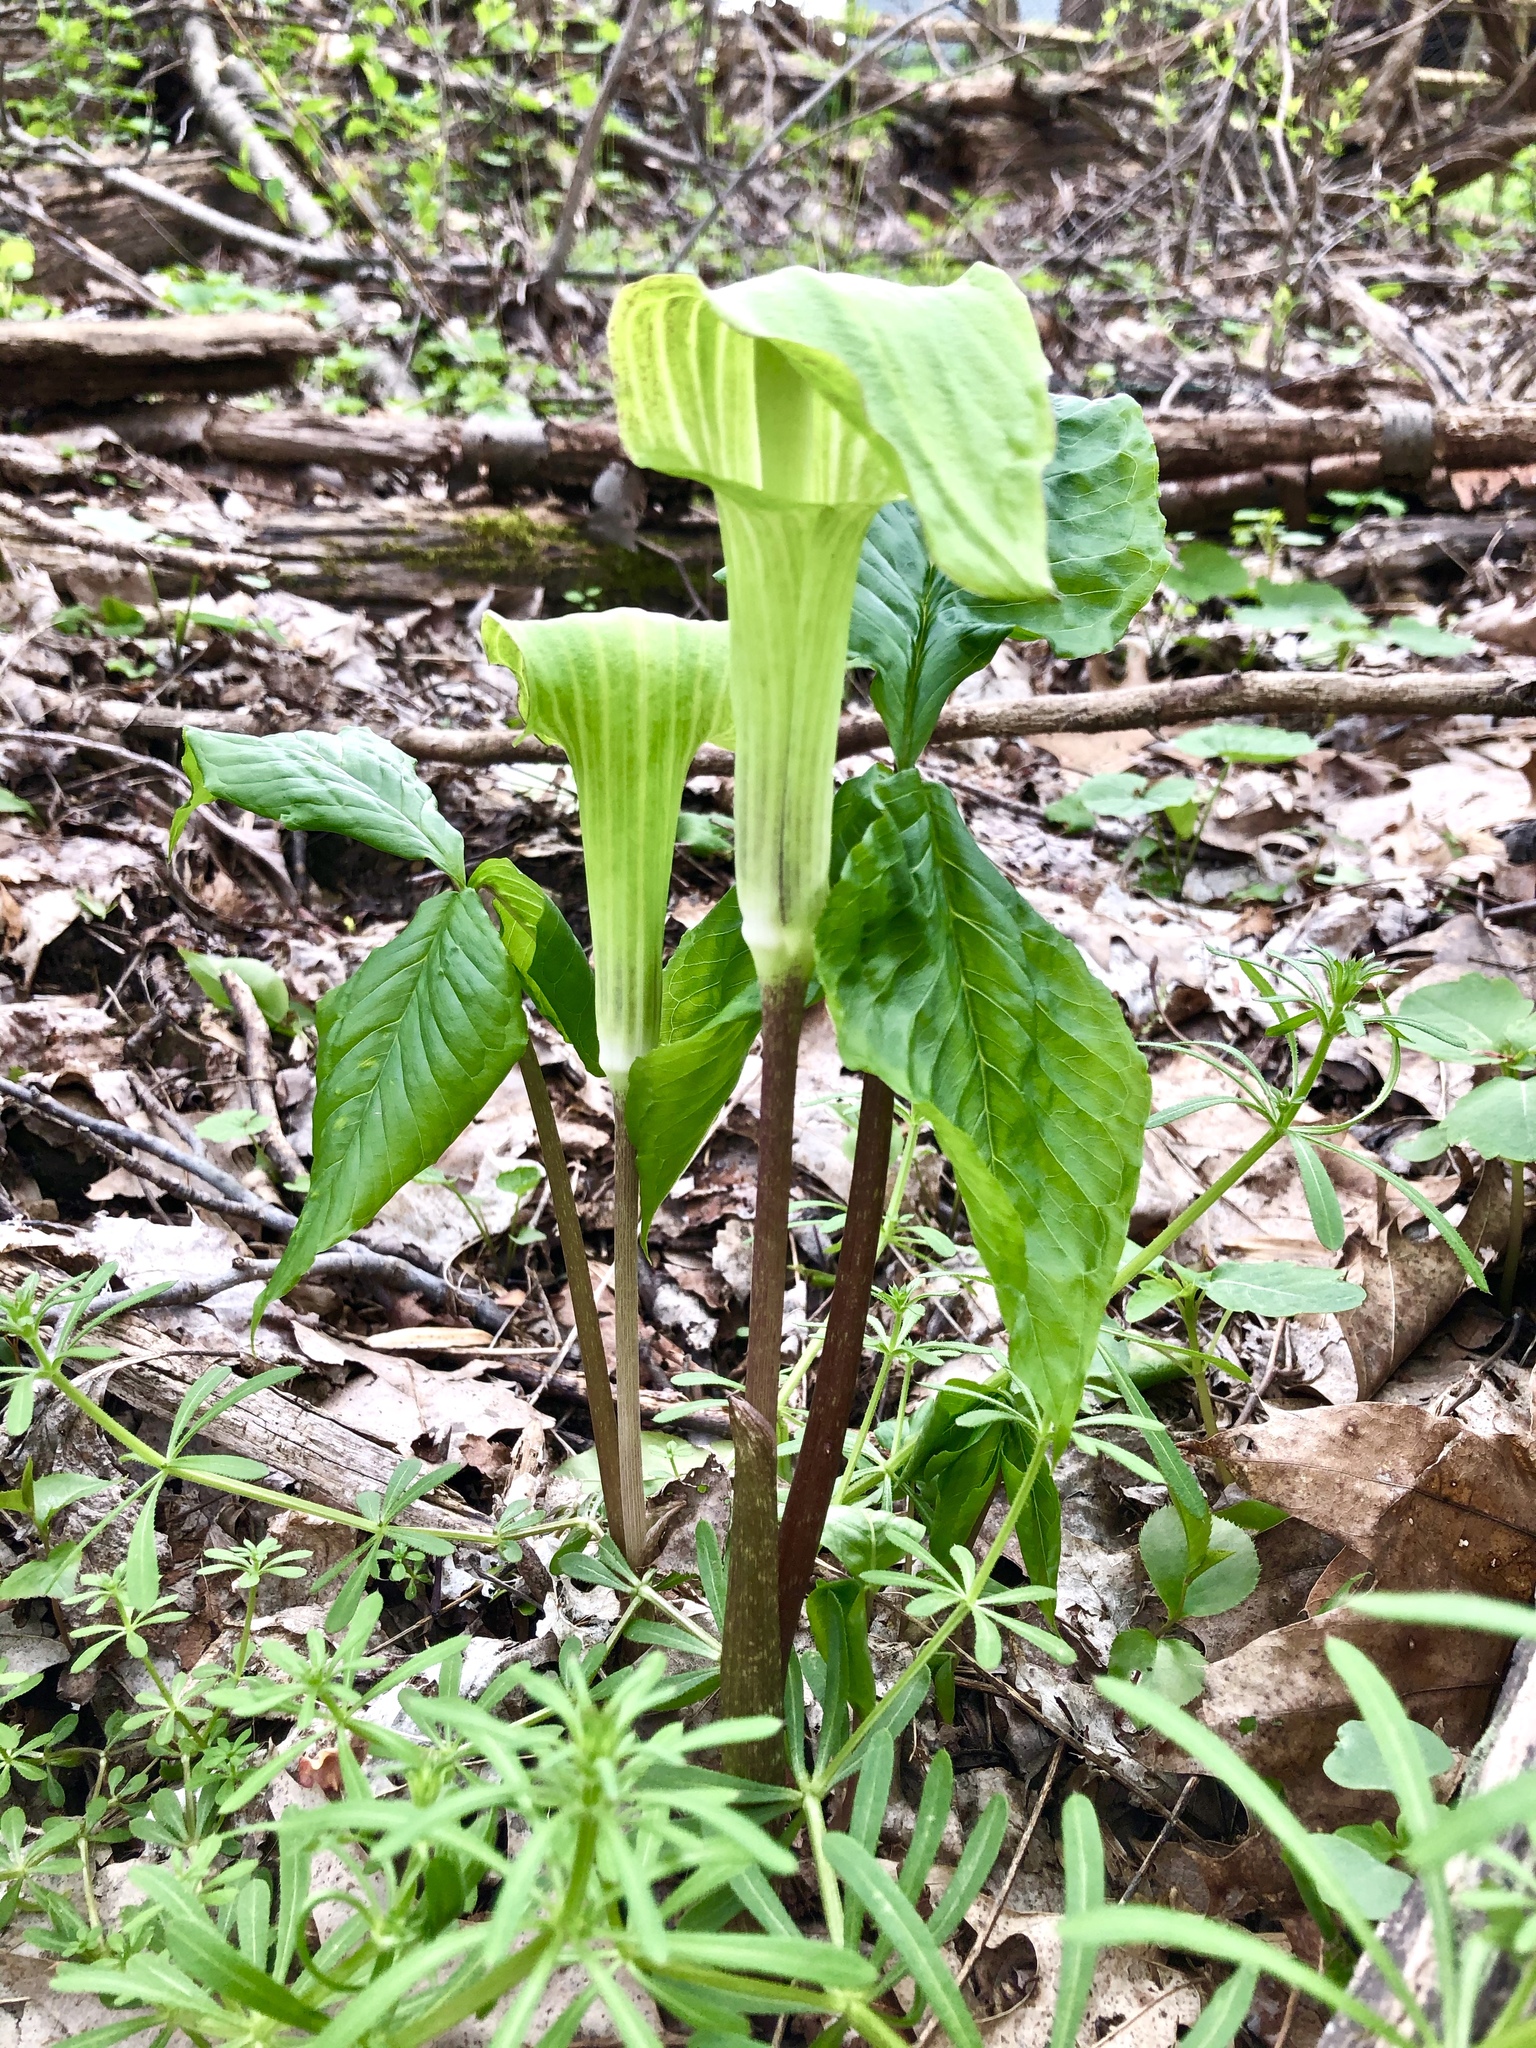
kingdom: Plantae
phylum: Tracheophyta
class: Liliopsida
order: Alismatales
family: Araceae
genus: Arisaema
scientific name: Arisaema triphyllum
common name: Jack-in-the-pulpit
